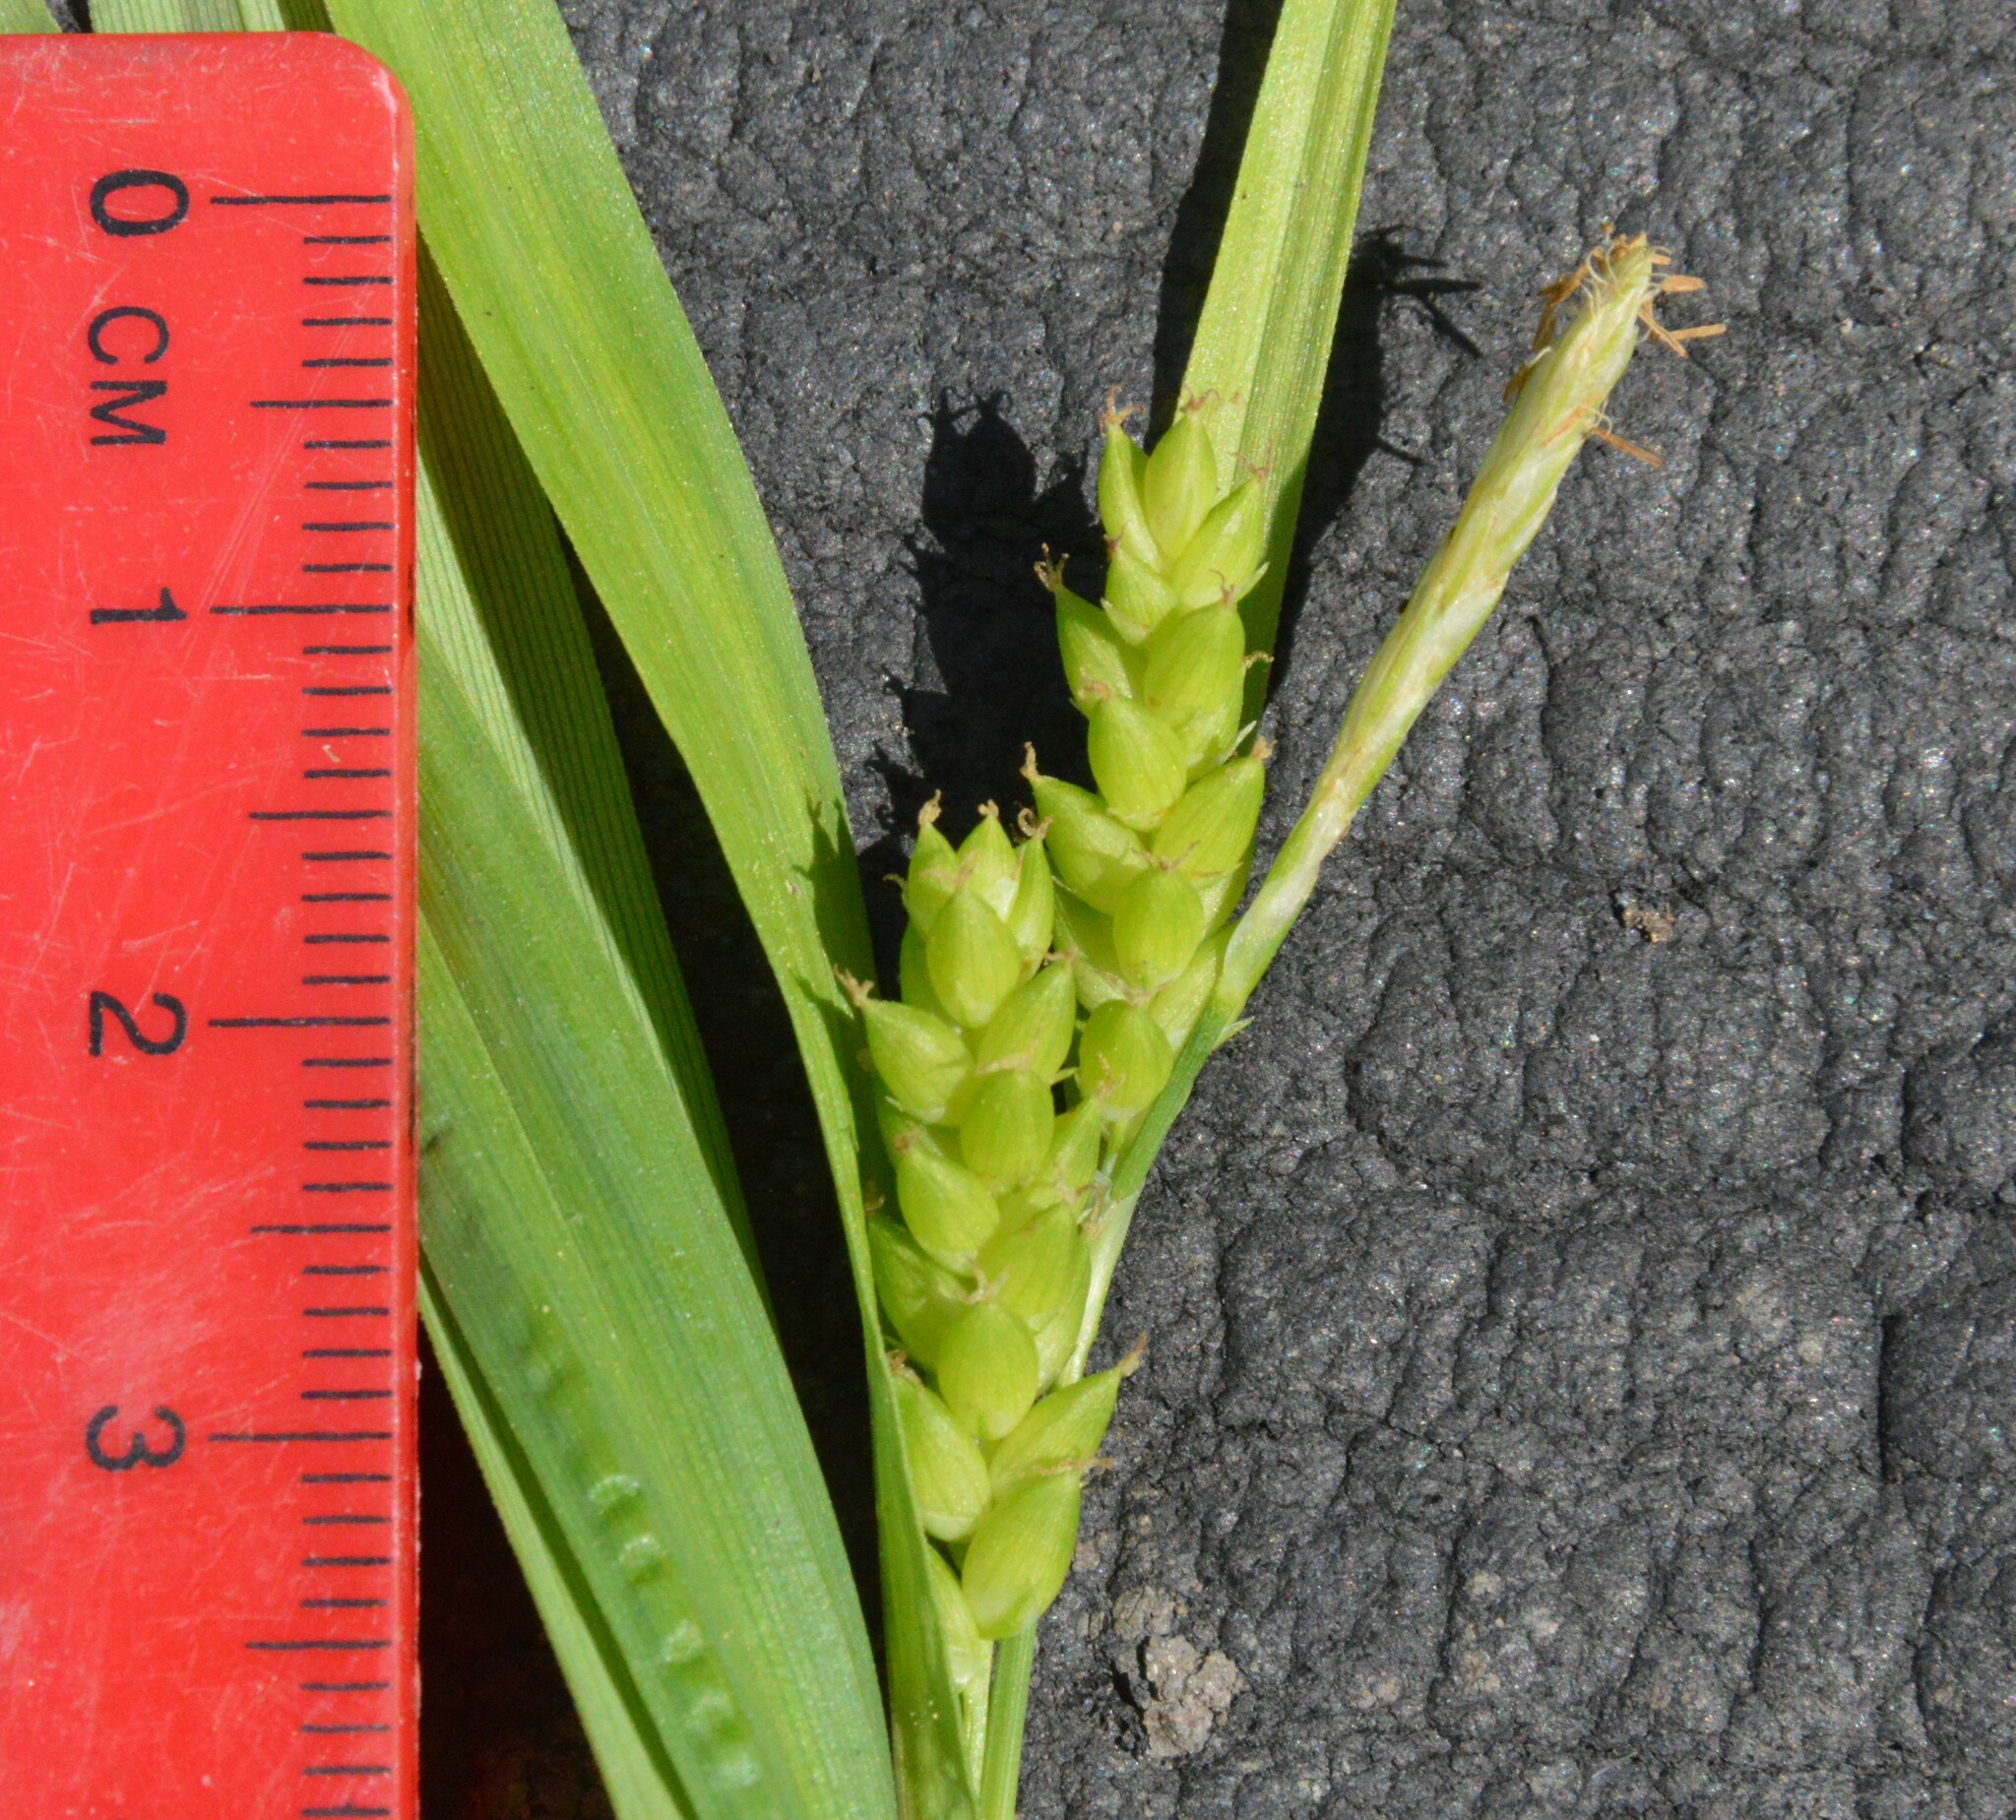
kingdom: Plantae
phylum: Tracheophyta
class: Liliopsida
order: Poales
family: Cyperaceae
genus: Carex
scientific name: Carex flaccosperma
